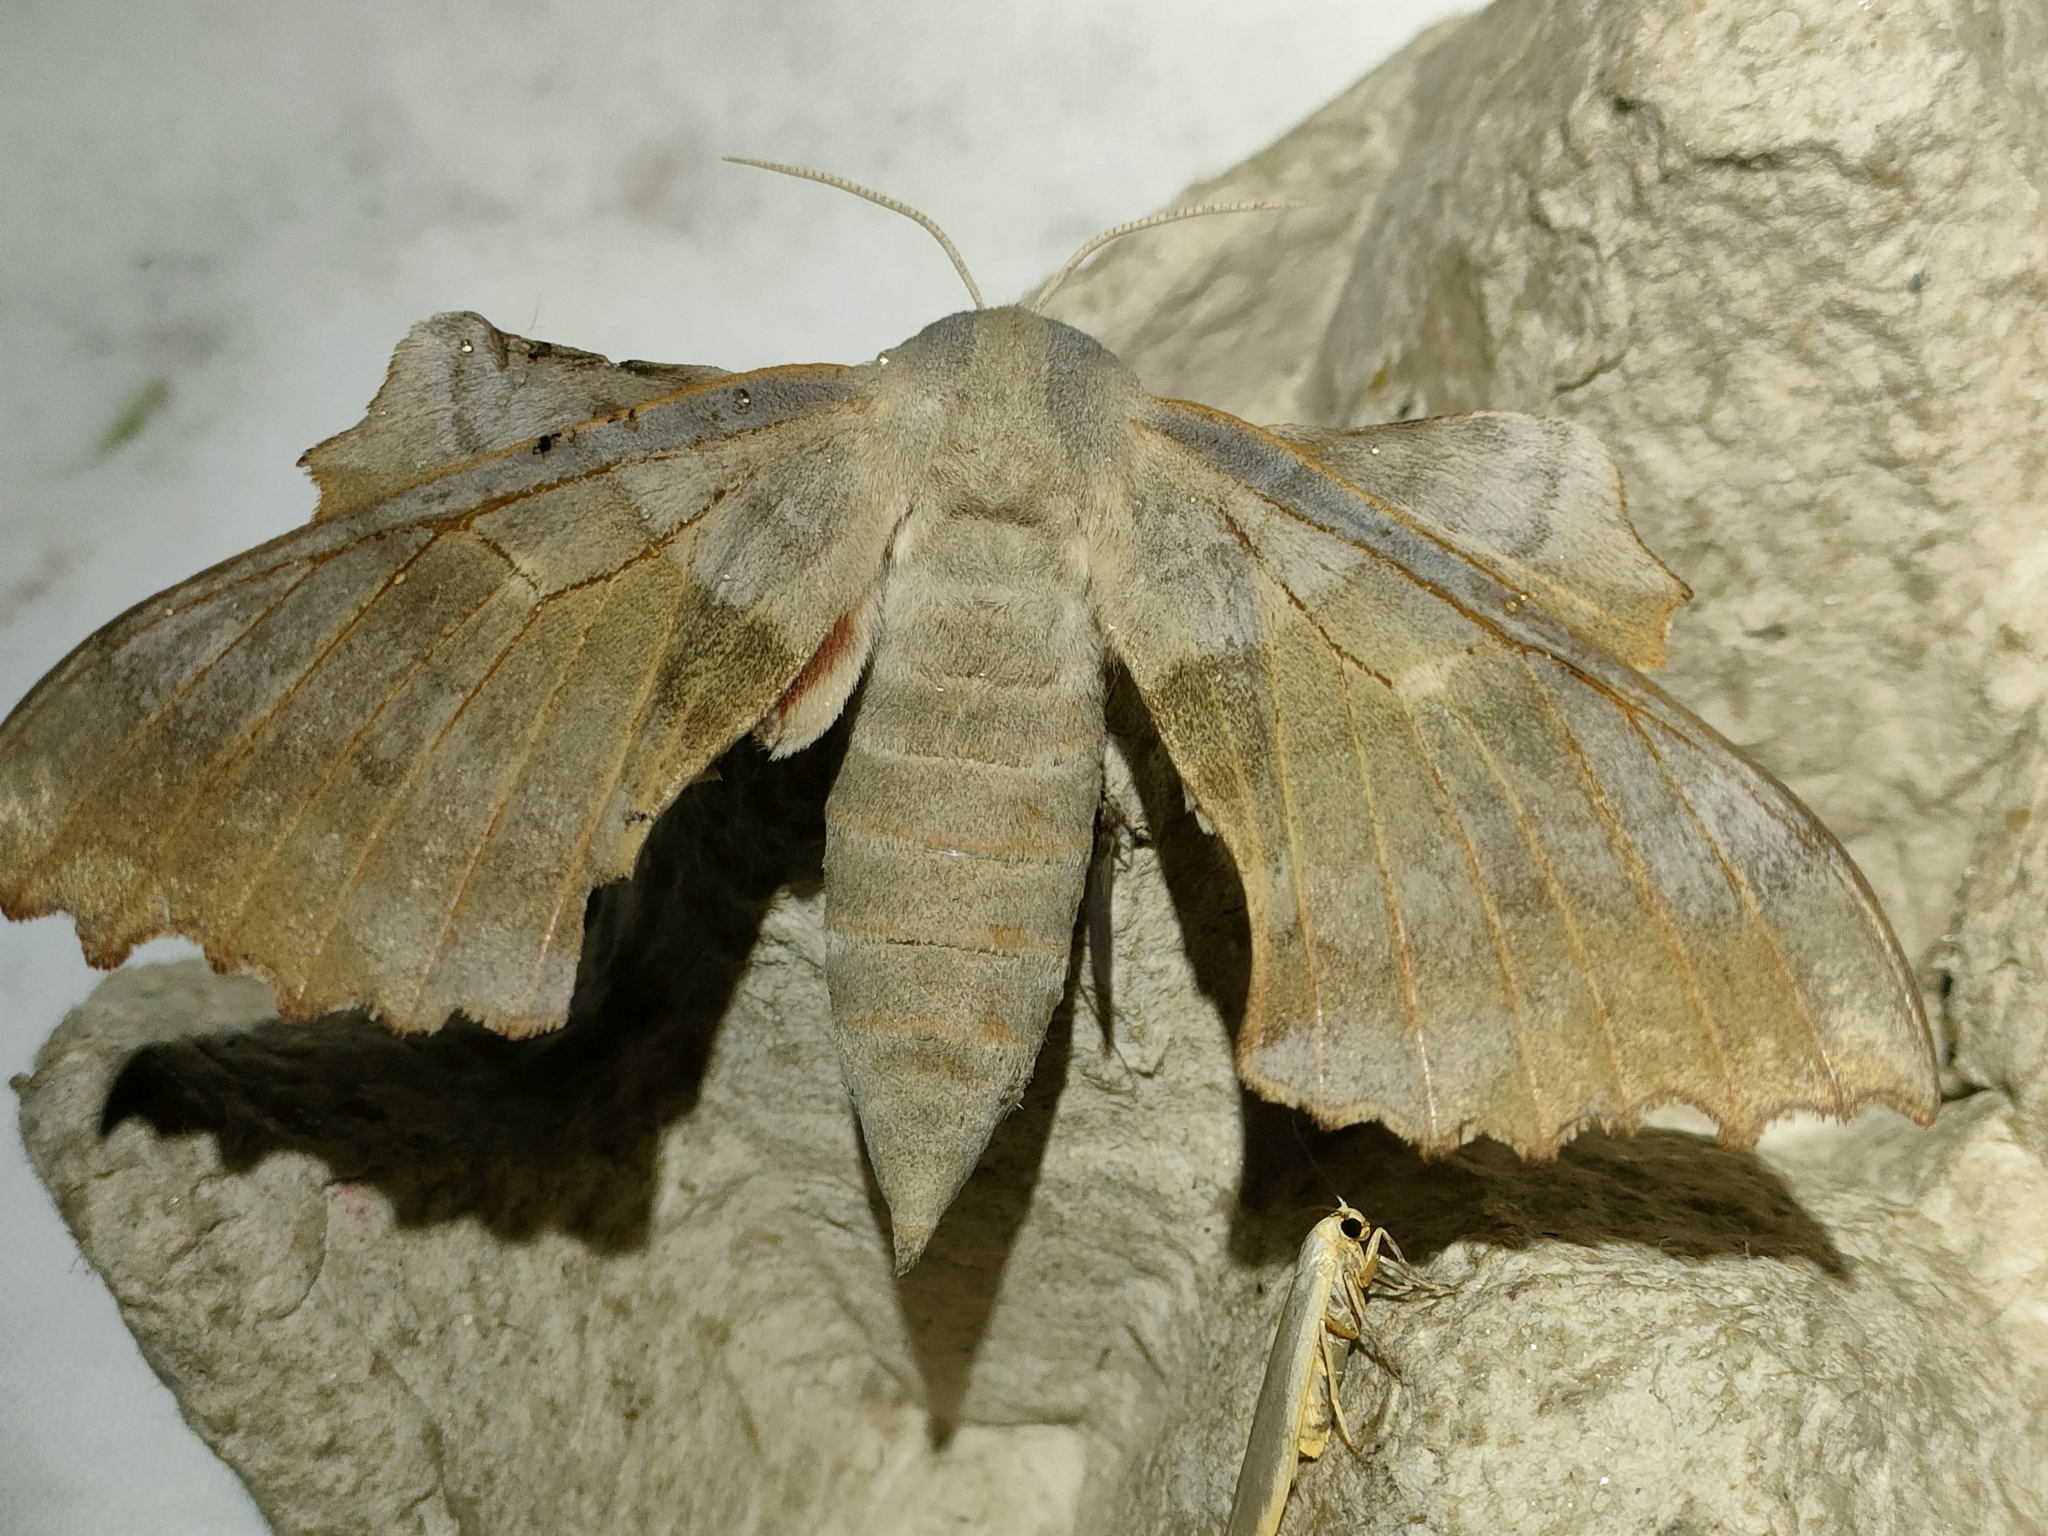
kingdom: Animalia
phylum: Arthropoda
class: Insecta
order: Lepidoptera
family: Sphingidae
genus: Laothoe
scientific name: Laothoe populi
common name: Poplar hawk-moth
